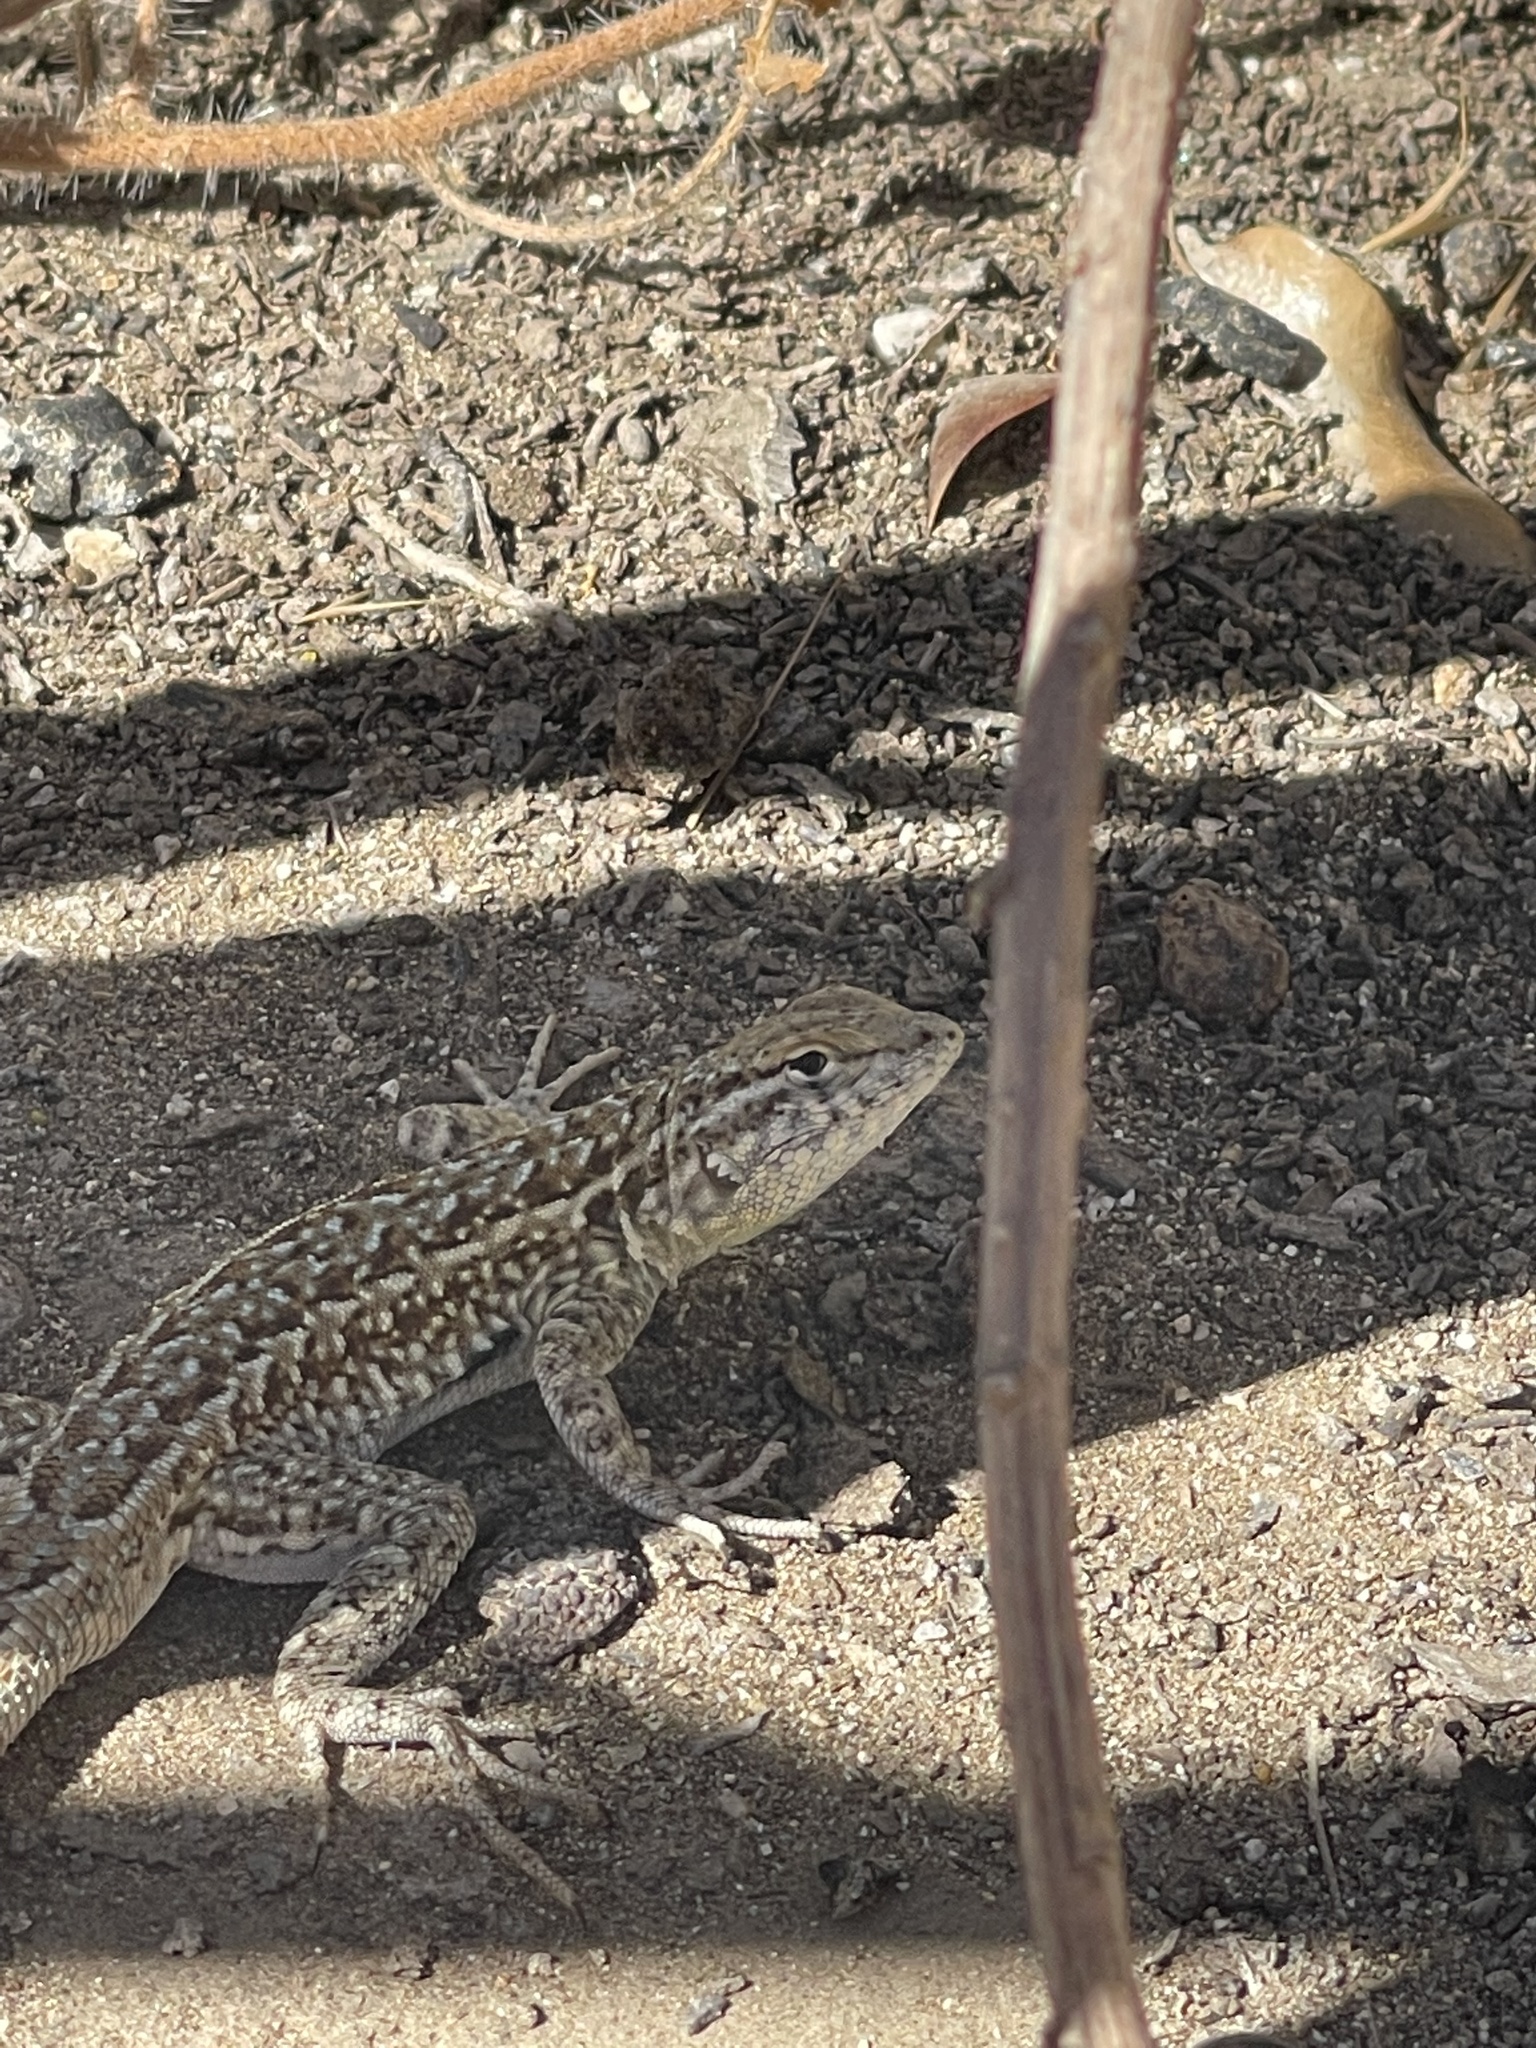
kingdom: Animalia
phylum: Chordata
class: Squamata
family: Phrynosomatidae
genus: Uta
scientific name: Uta stansburiana
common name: Side-blotched lizard
